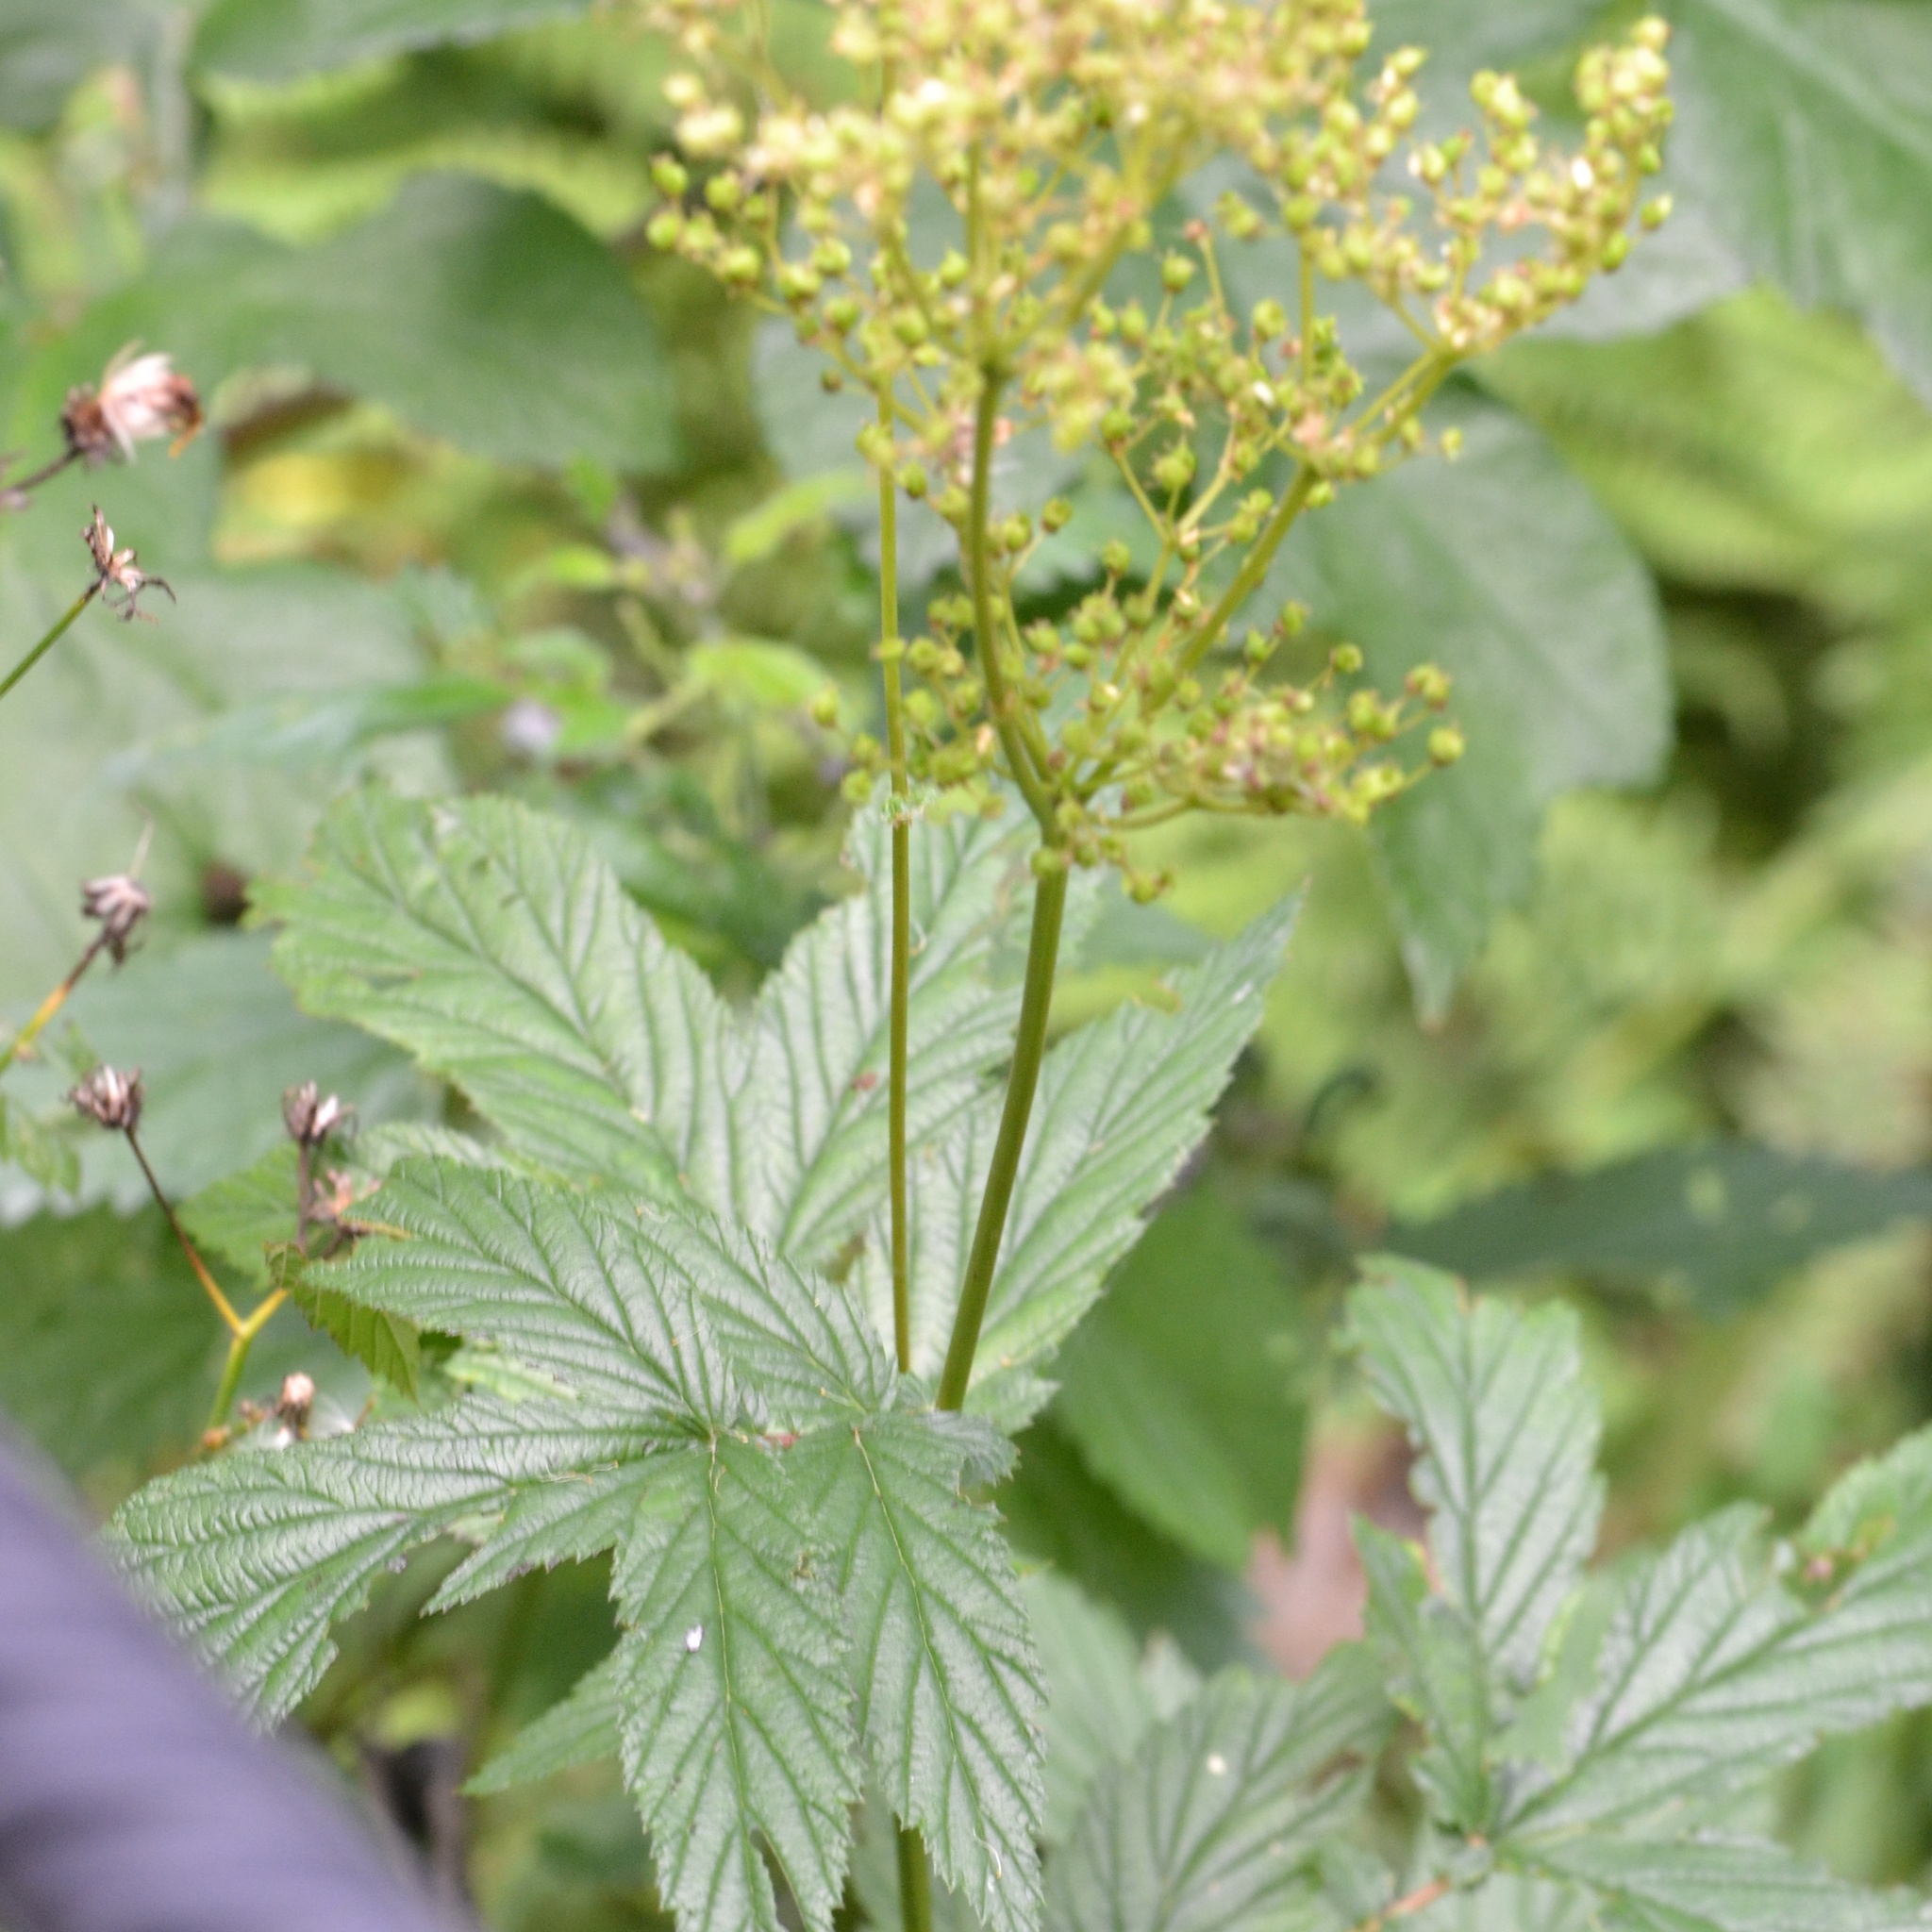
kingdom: Plantae
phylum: Tracheophyta
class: Magnoliopsida
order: Rosales
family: Rosaceae
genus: Filipendula
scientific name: Filipendula ulmaria
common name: Meadowsweet
